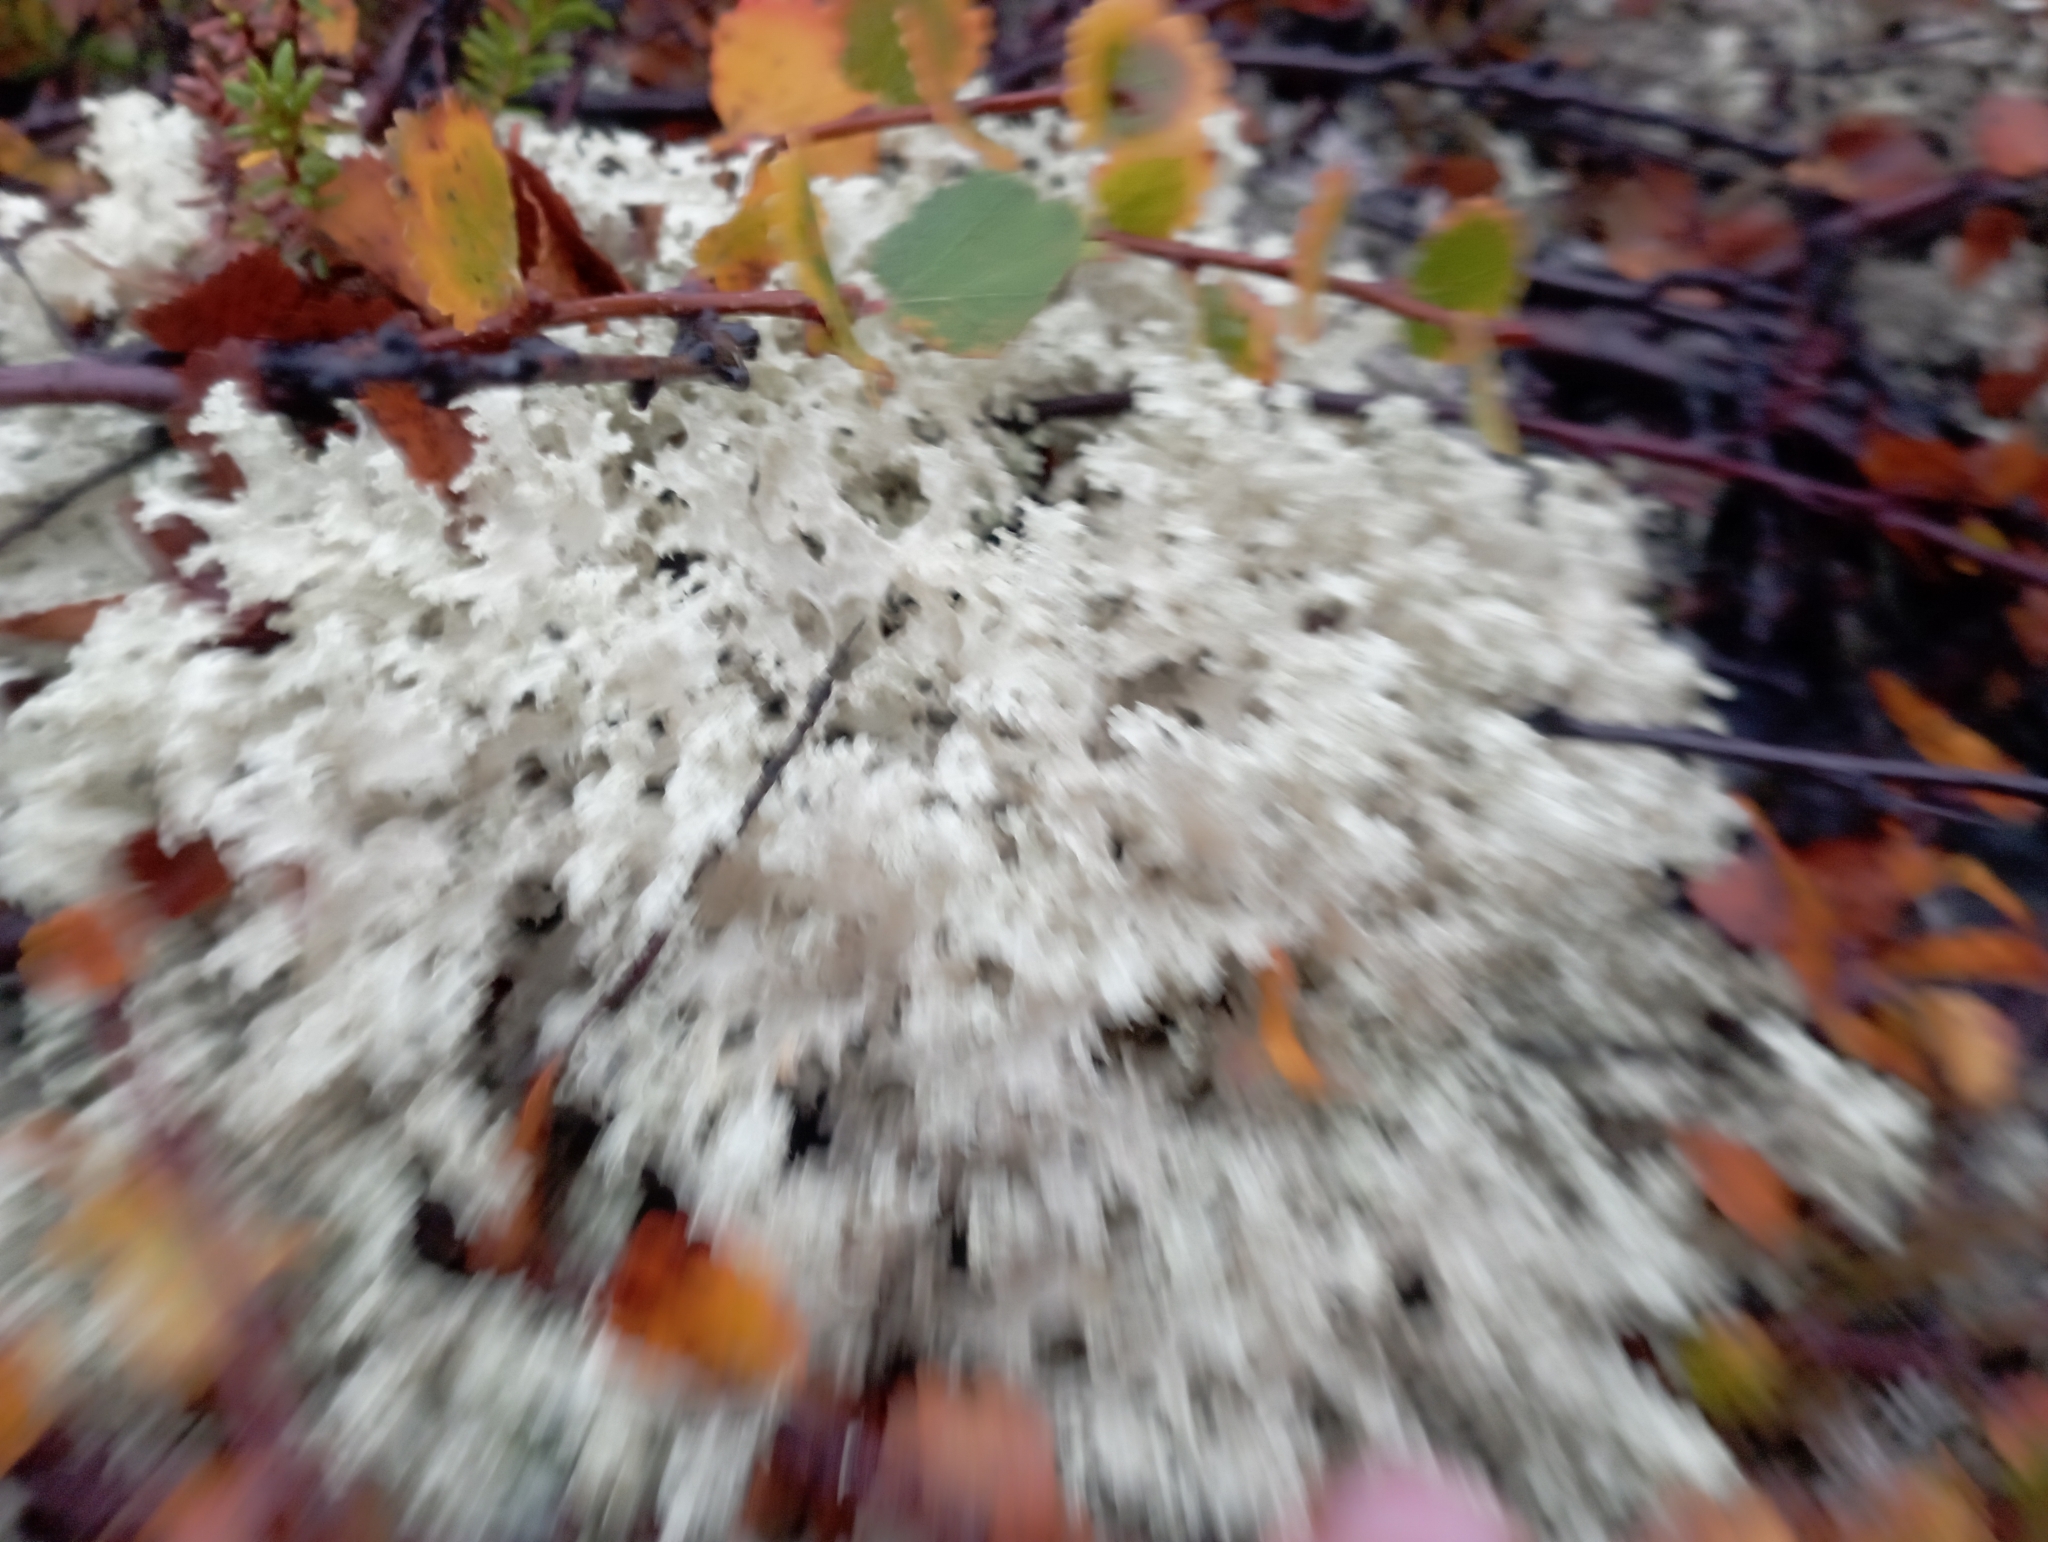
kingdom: Fungi
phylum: Ascomycota
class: Lecanoromycetes
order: Lecanorales
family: Parmeliaceae
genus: Nephromopsis
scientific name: Nephromopsis nivalis
